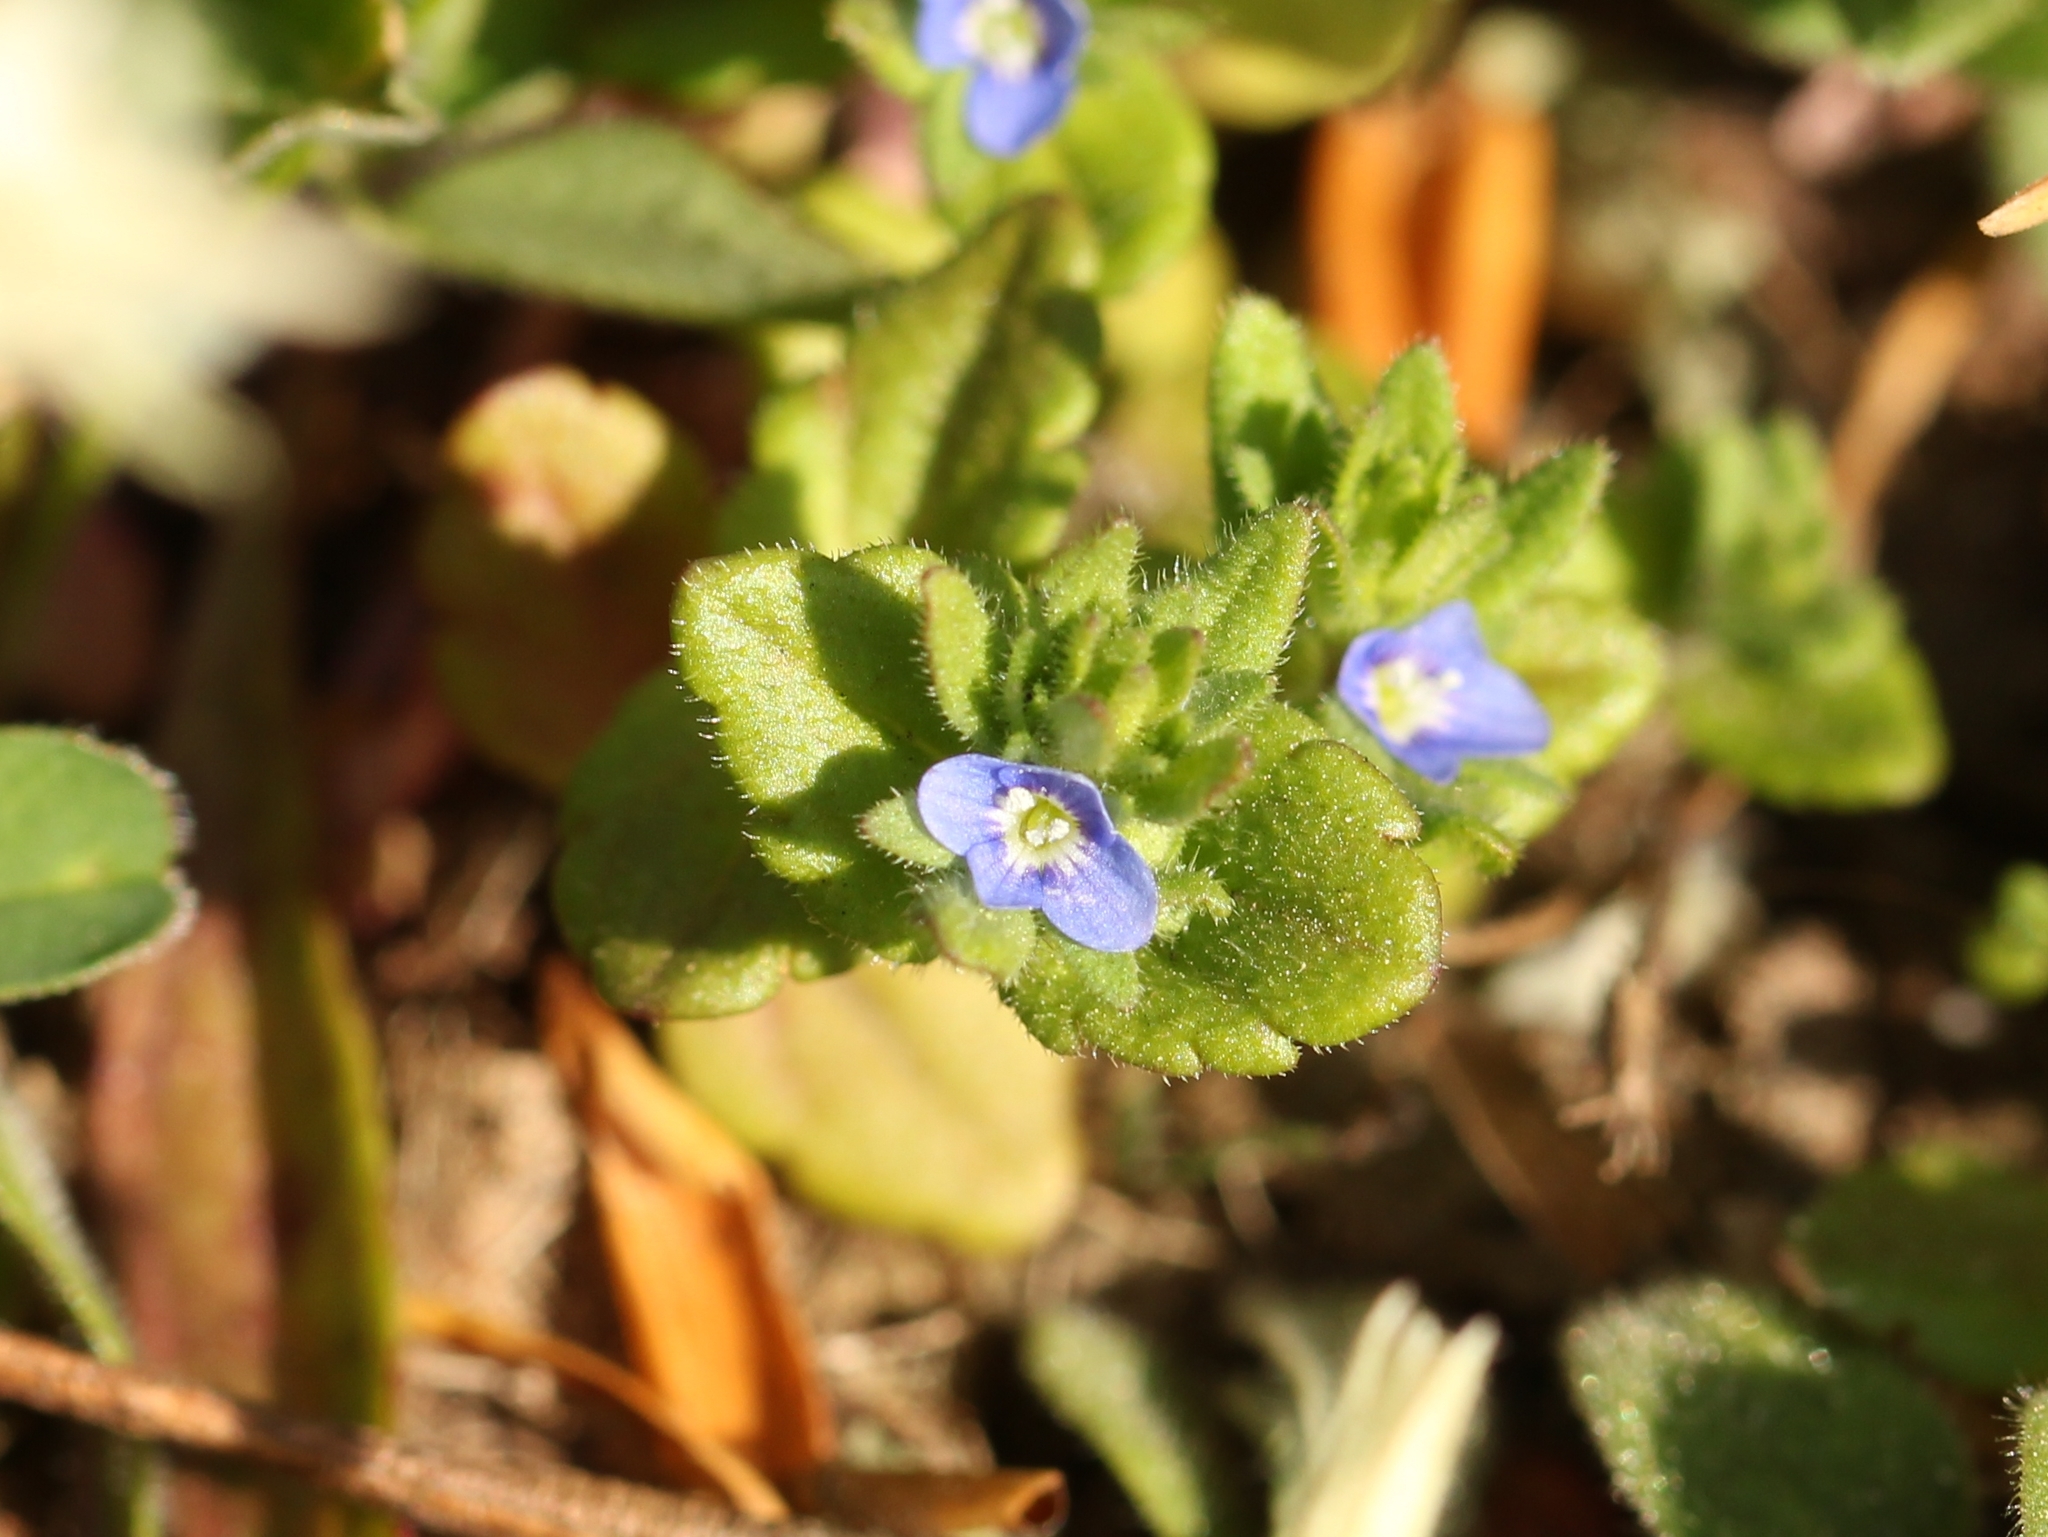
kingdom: Plantae
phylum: Tracheophyta
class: Magnoliopsida
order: Lamiales
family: Plantaginaceae
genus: Veronica
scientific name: Veronica arvensis
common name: Corn speedwell
